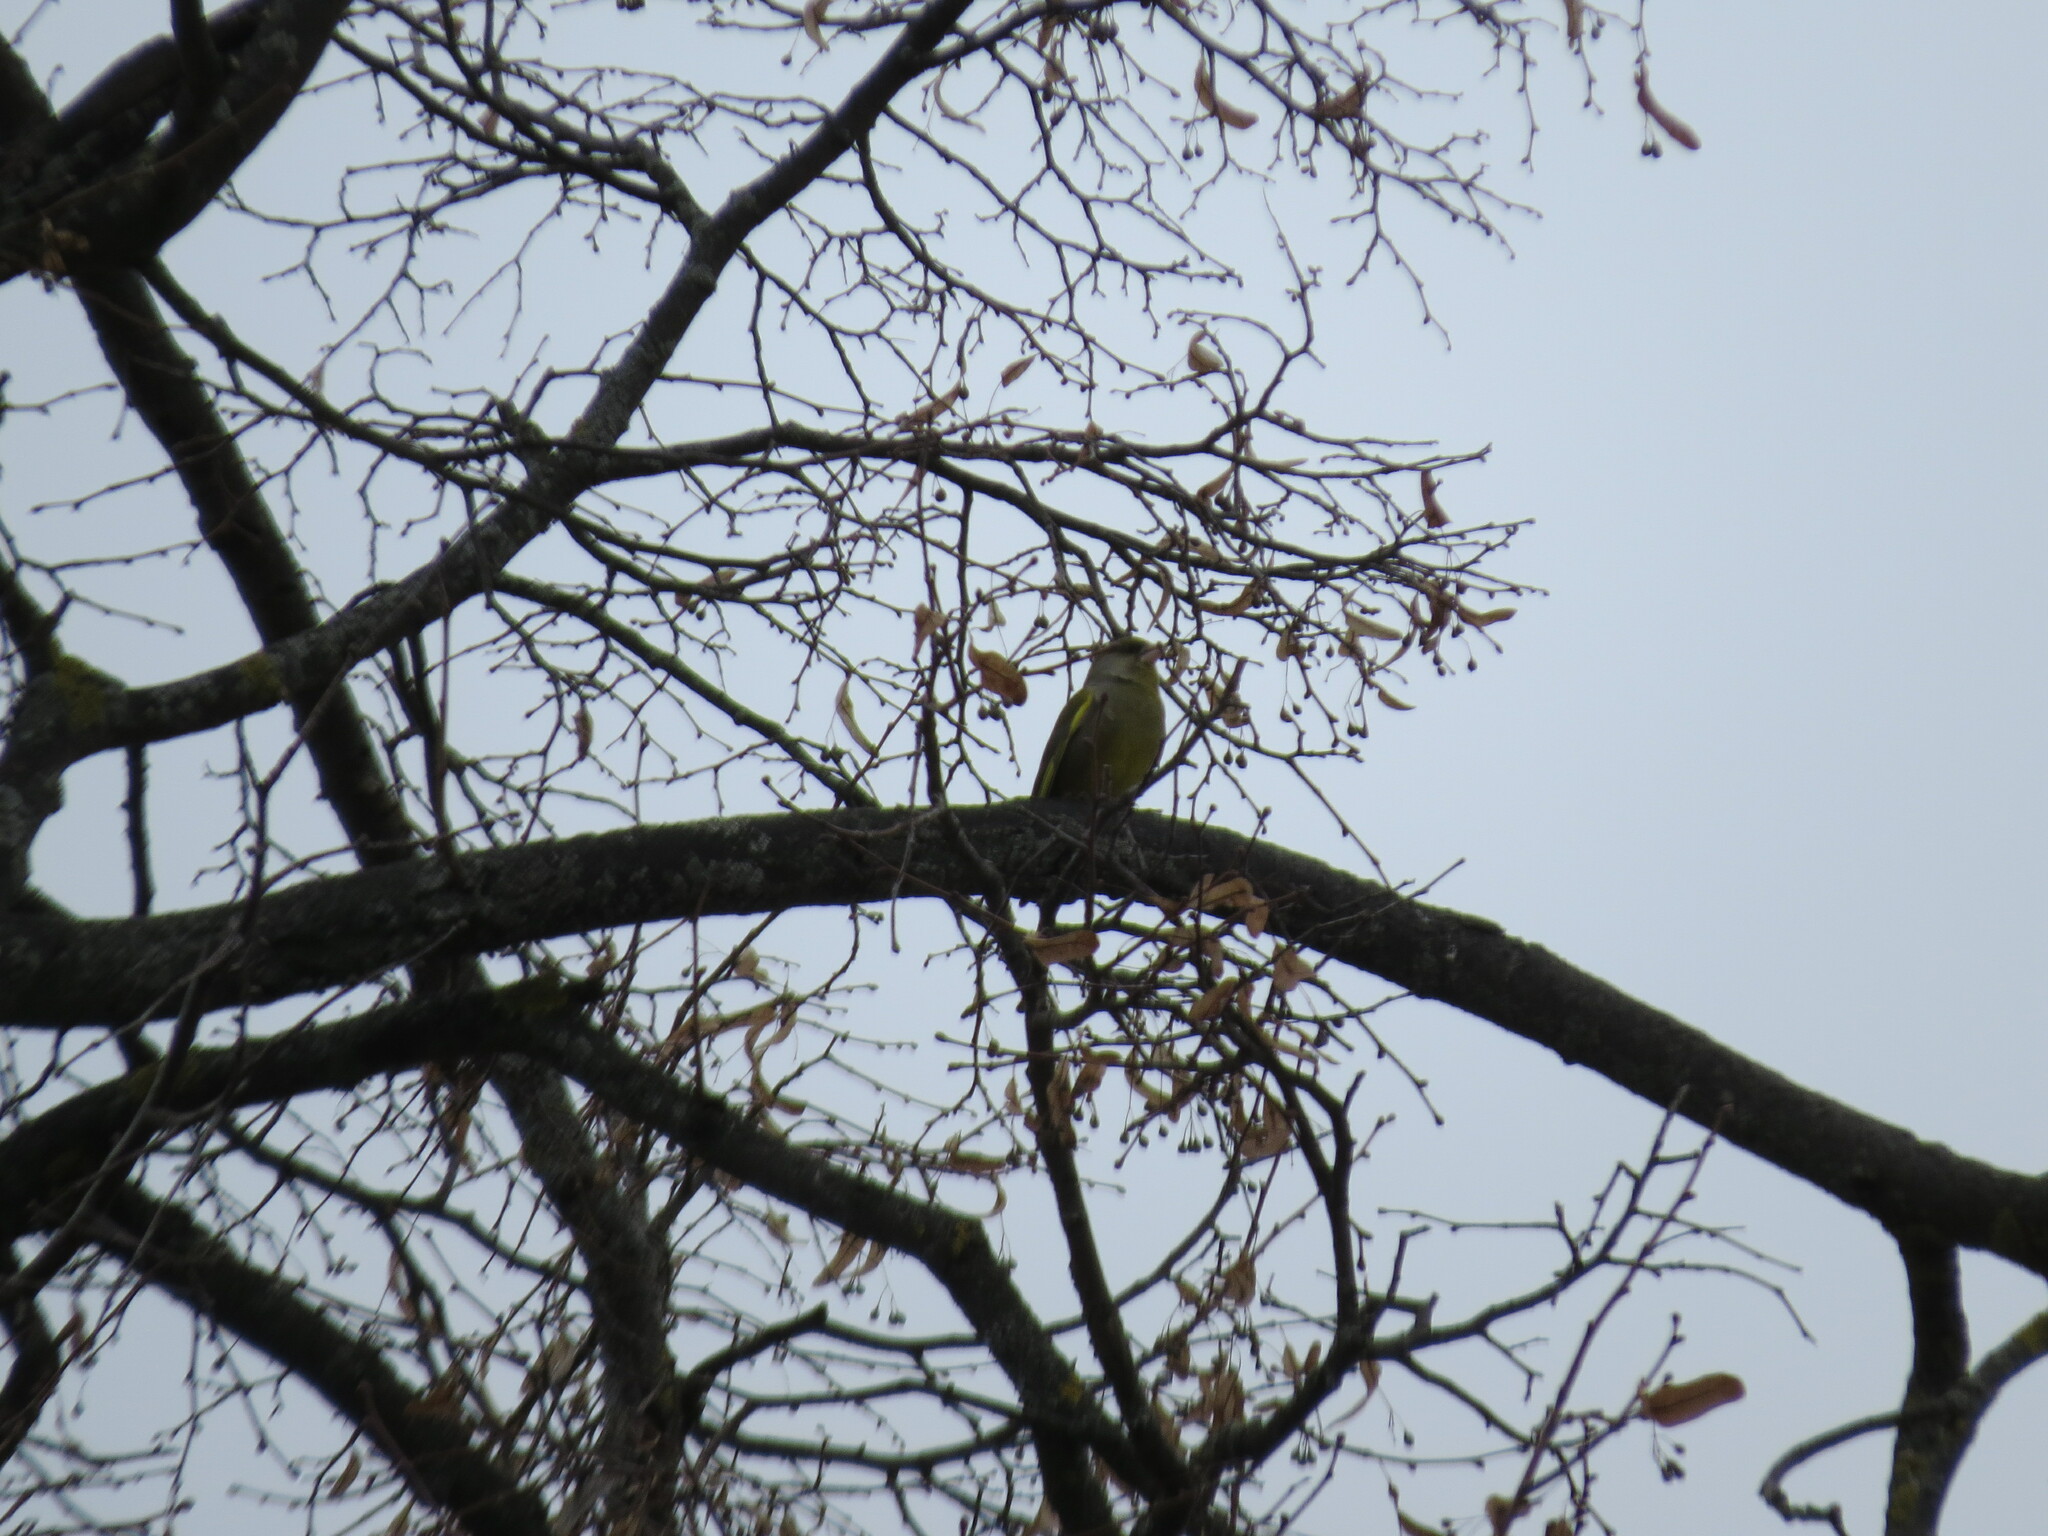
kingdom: Plantae
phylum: Tracheophyta
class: Liliopsida
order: Poales
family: Poaceae
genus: Chloris
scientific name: Chloris chloris
